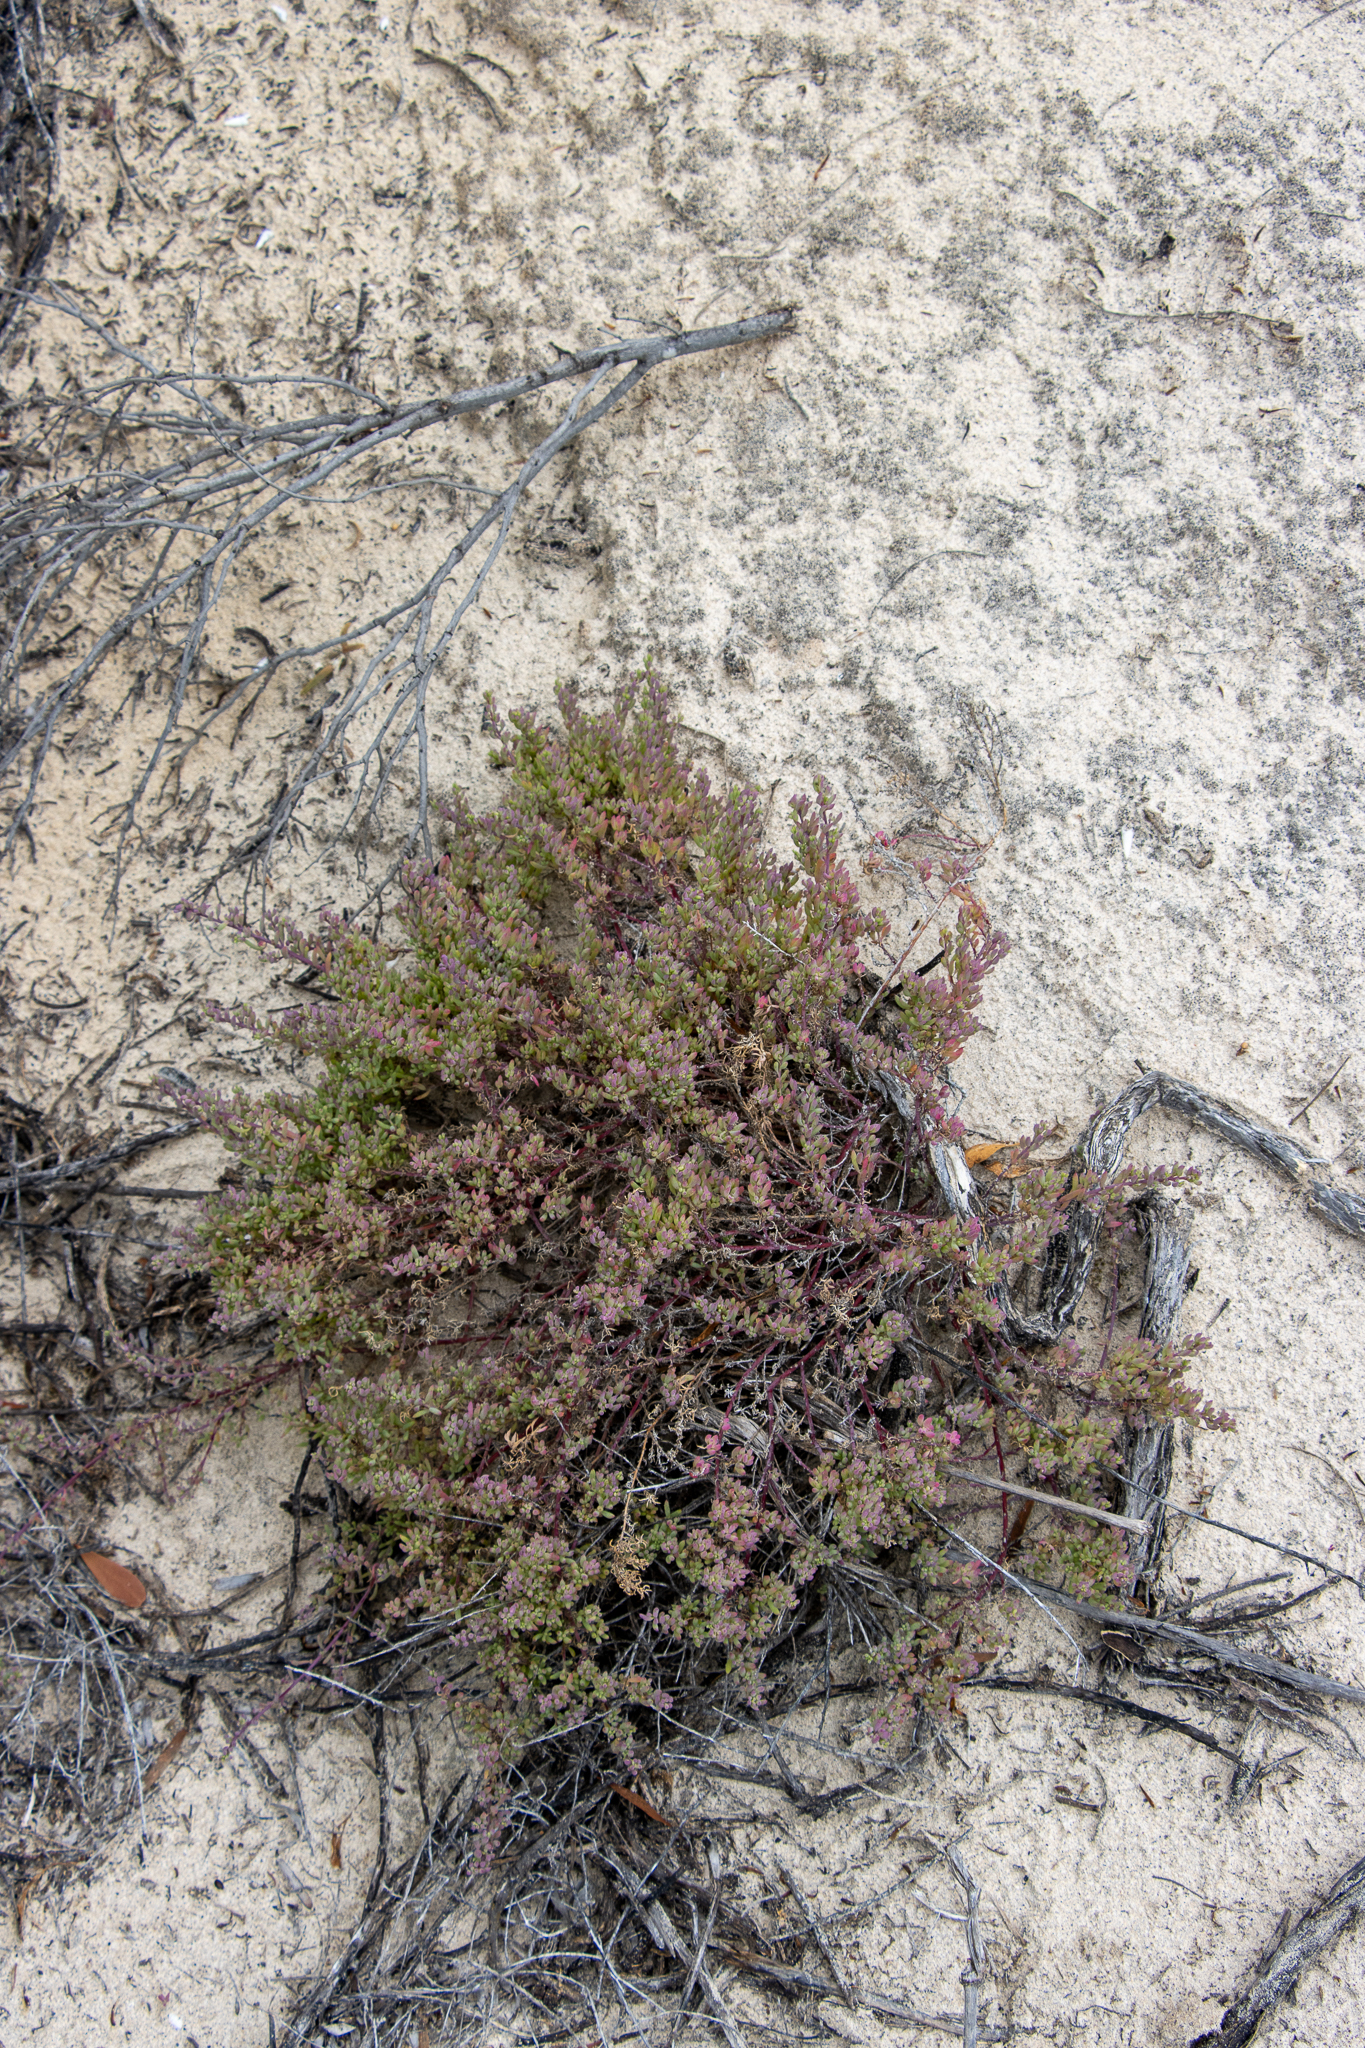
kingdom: Plantae
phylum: Tracheophyta
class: Magnoliopsida
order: Caryophyllales
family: Amaranthaceae
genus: Threlkeldia
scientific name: Threlkeldia diffusa
